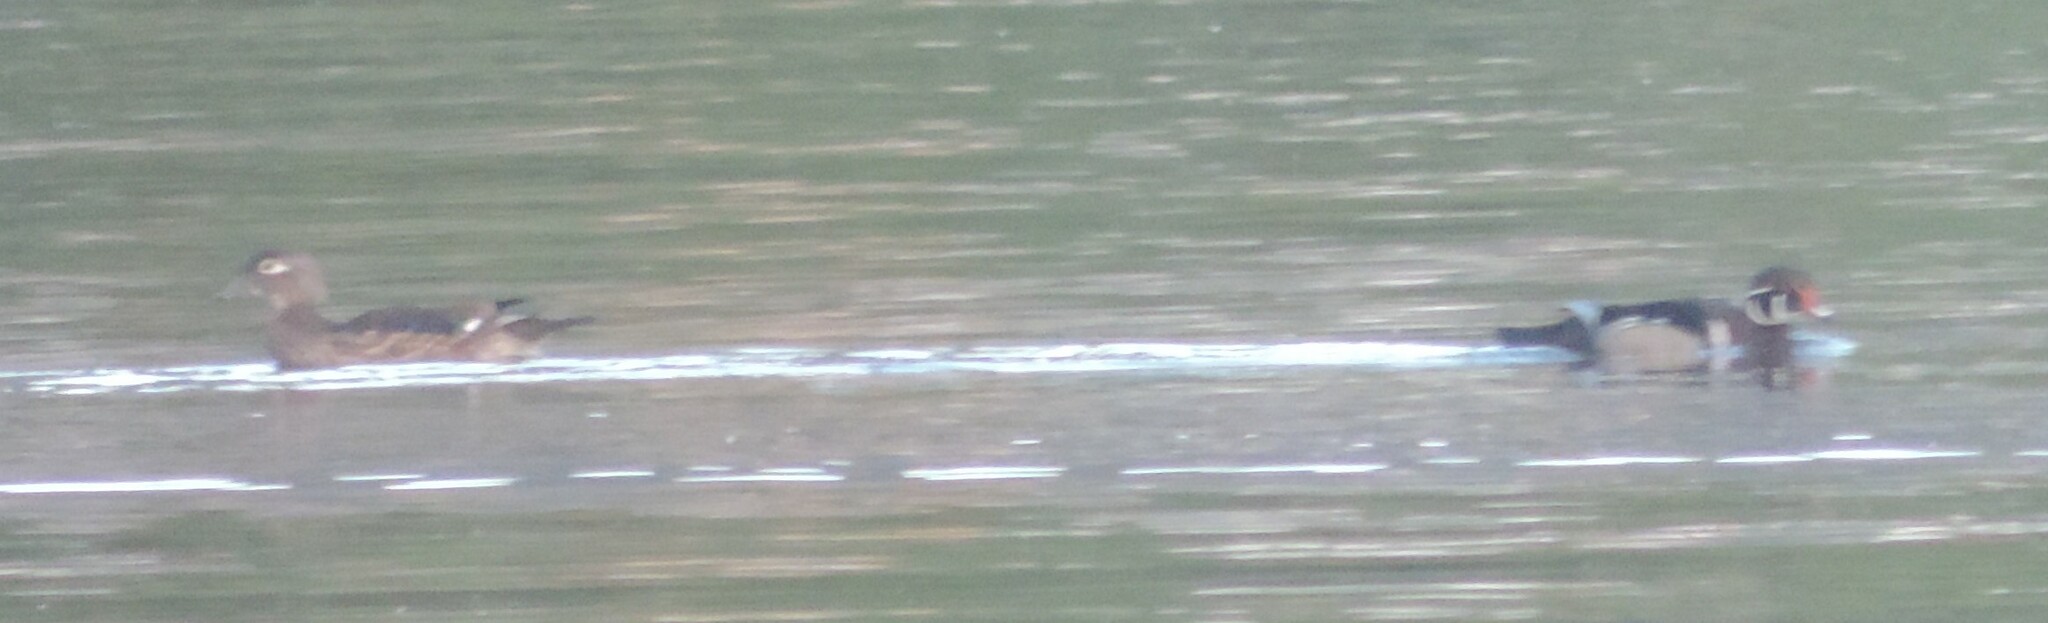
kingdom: Animalia
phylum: Chordata
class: Aves
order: Anseriformes
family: Anatidae
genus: Aix
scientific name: Aix sponsa
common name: Wood duck
